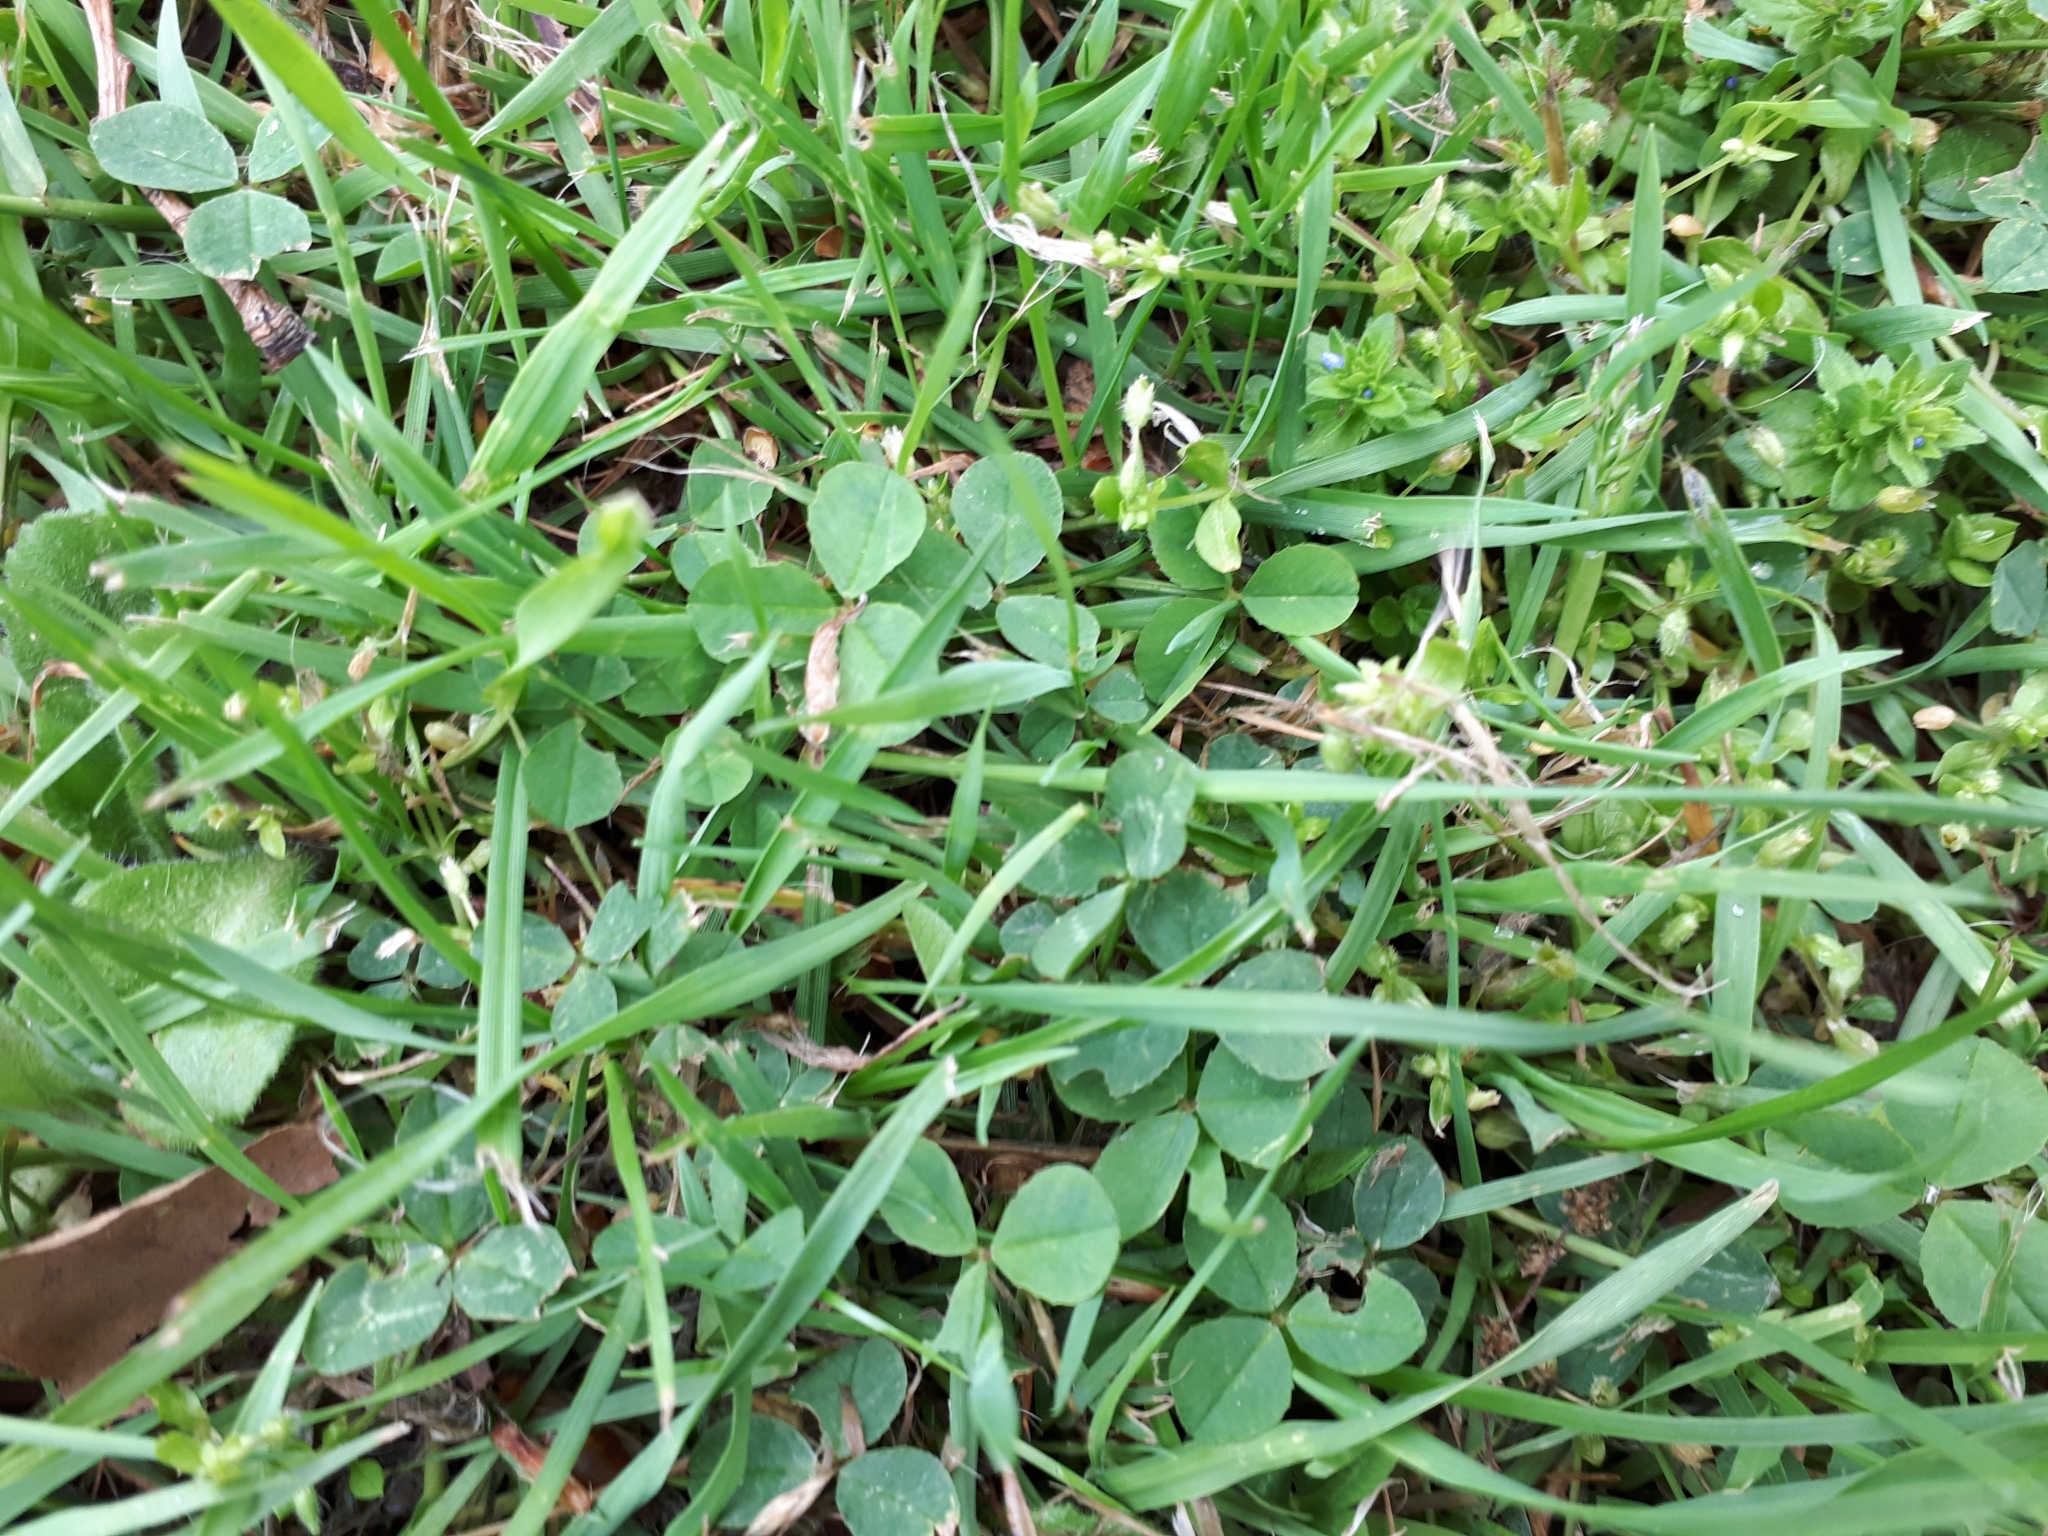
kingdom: Plantae
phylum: Tracheophyta
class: Magnoliopsida
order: Fabales
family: Fabaceae
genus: Trifolium
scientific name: Trifolium repens
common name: White clover
